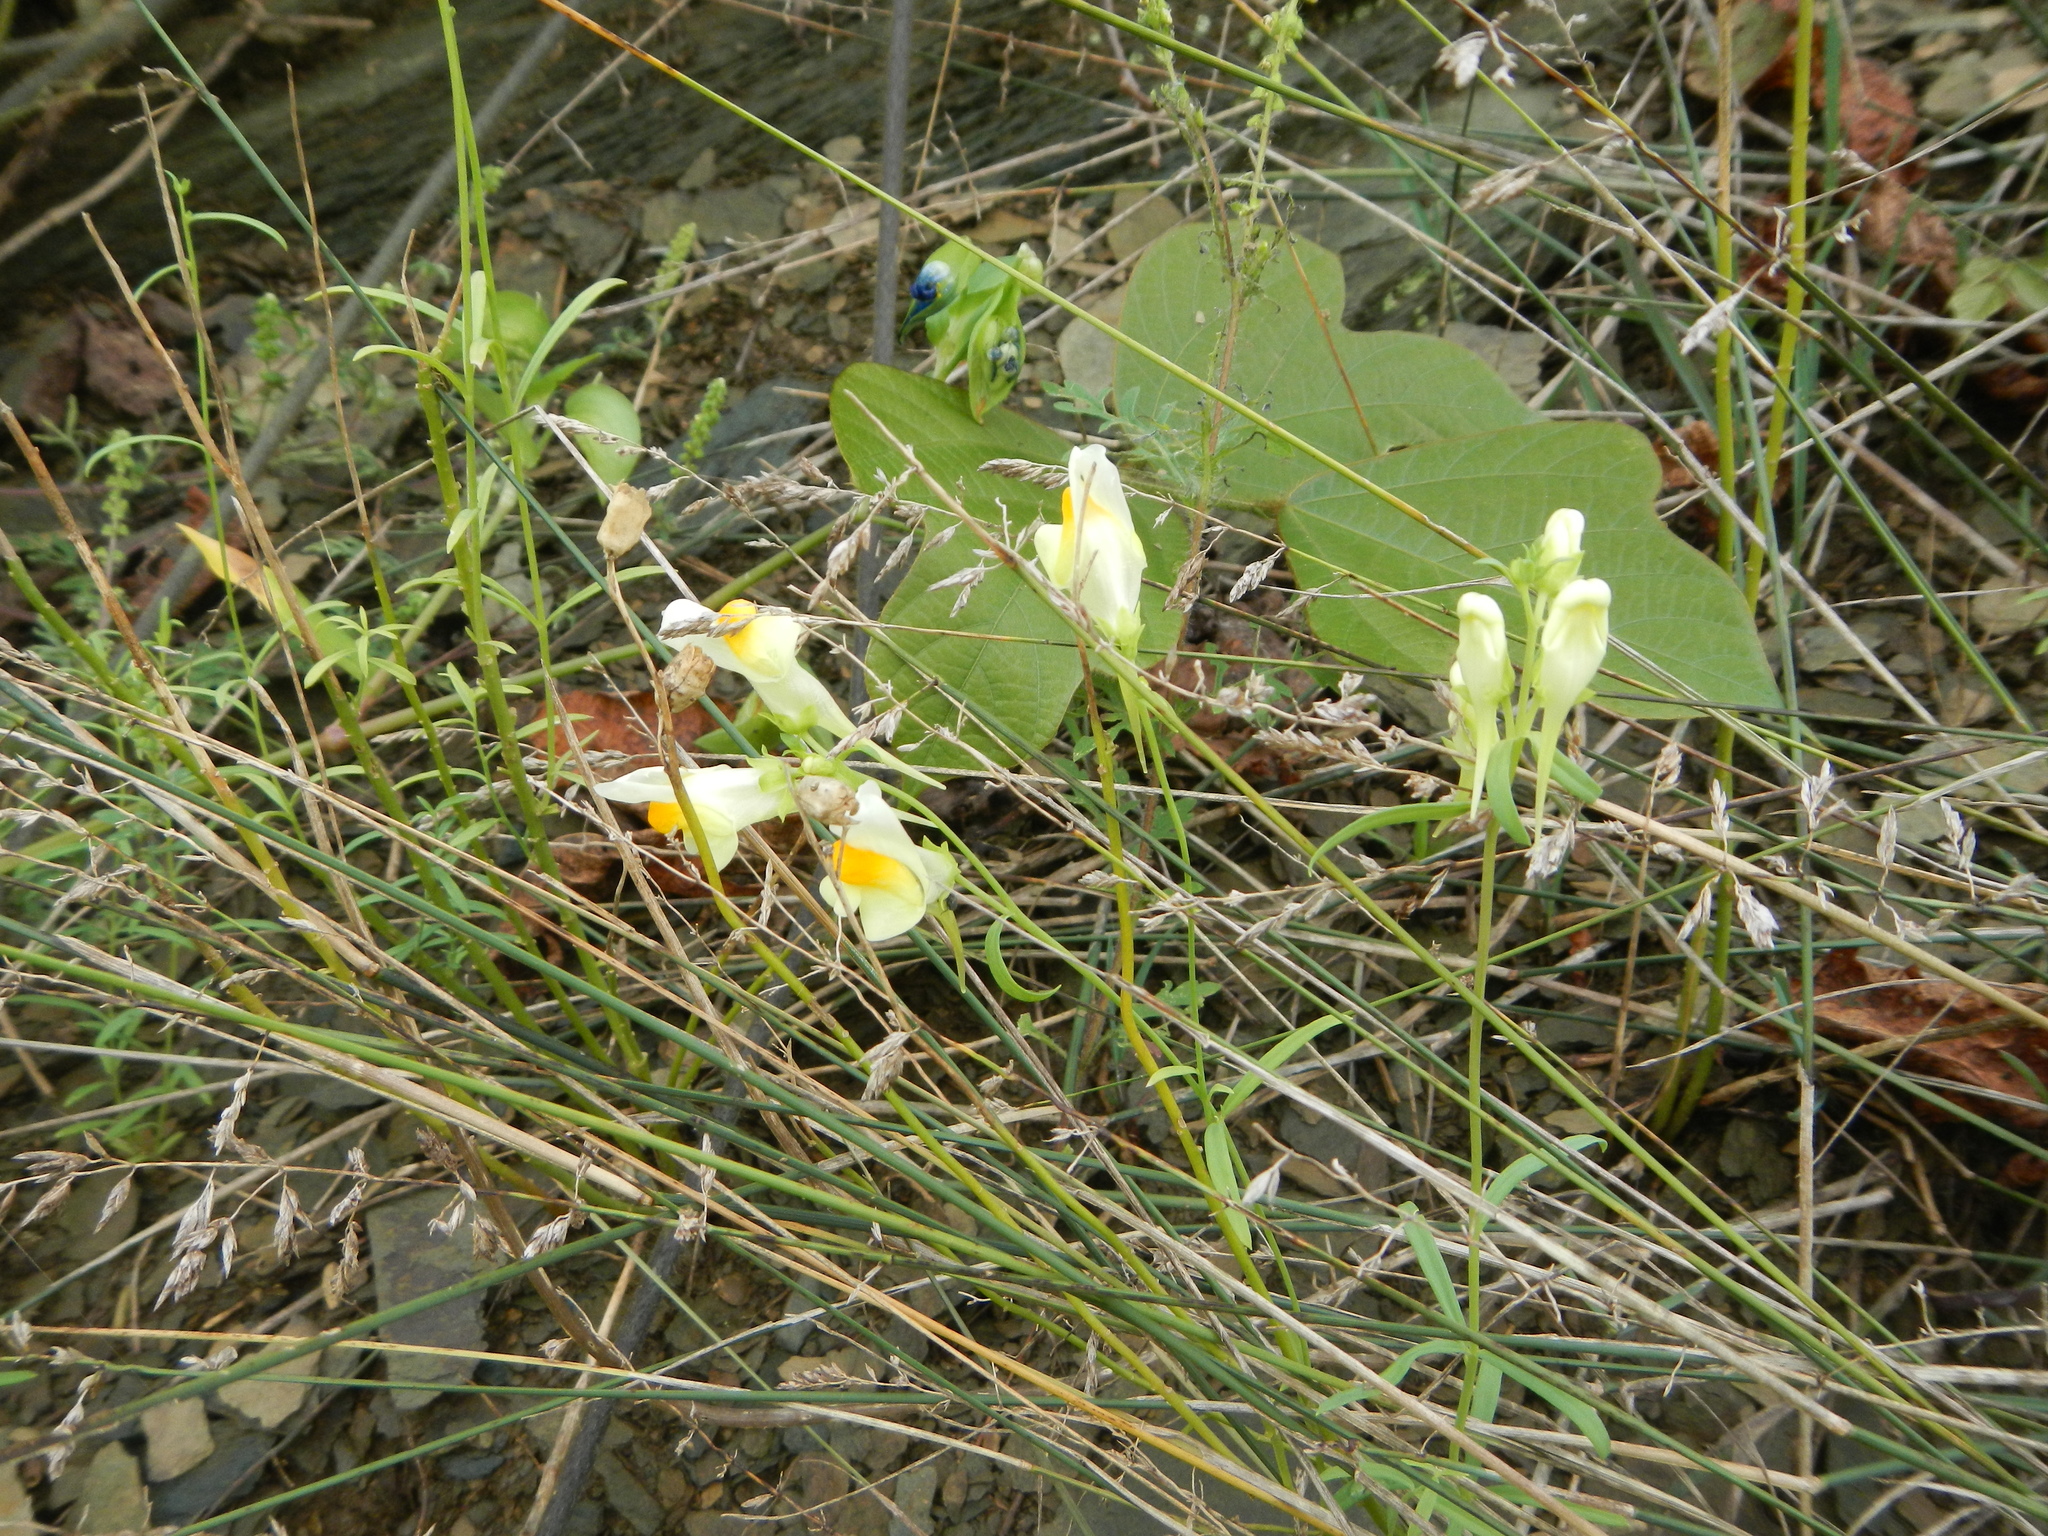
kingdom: Plantae
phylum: Tracheophyta
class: Magnoliopsida
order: Lamiales
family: Plantaginaceae
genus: Linaria
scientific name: Linaria vulgaris
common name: Butter and eggs
